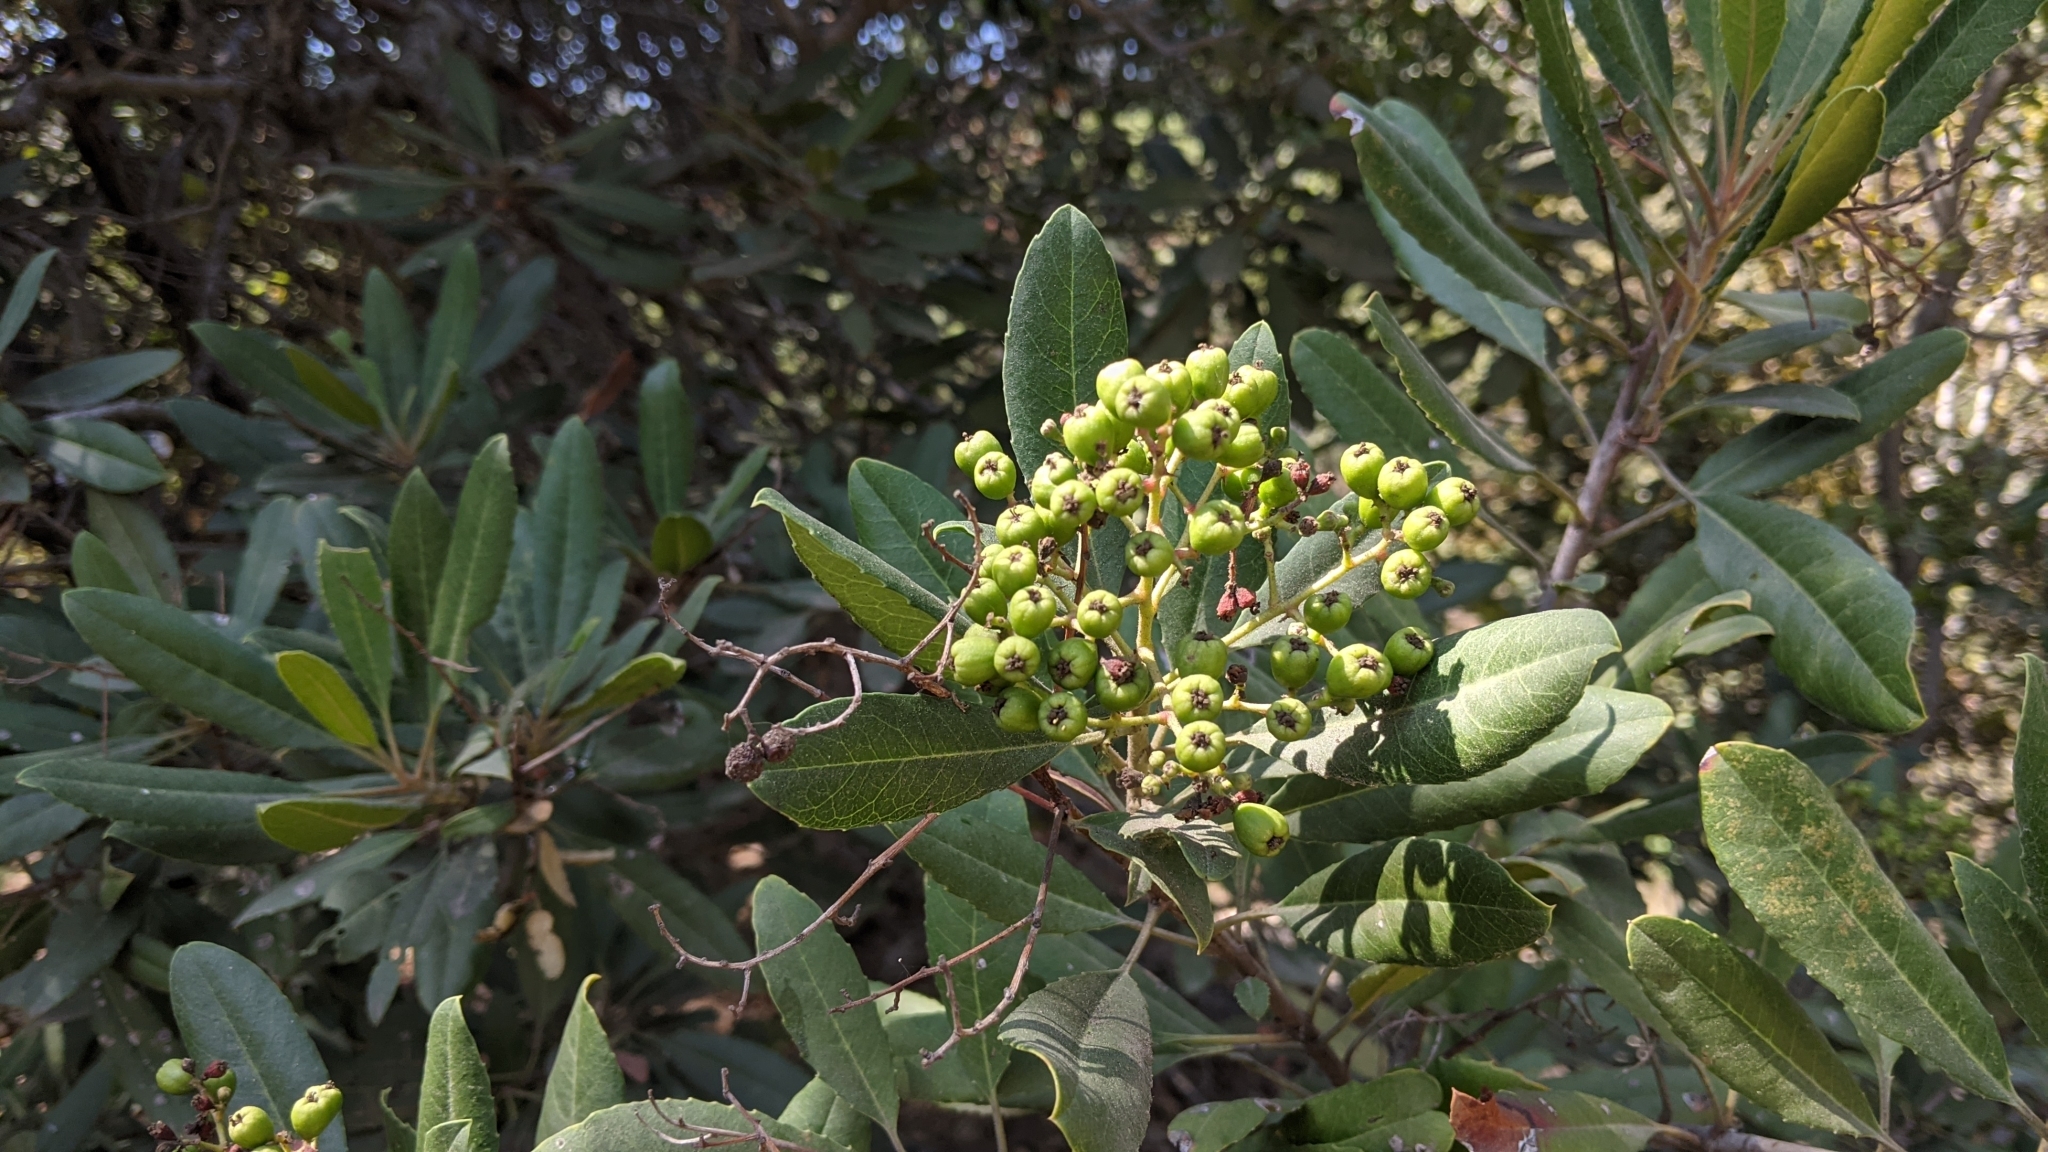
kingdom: Plantae
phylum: Tracheophyta
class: Magnoliopsida
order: Rosales
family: Rosaceae
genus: Heteromeles
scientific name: Heteromeles arbutifolia
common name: California-holly
